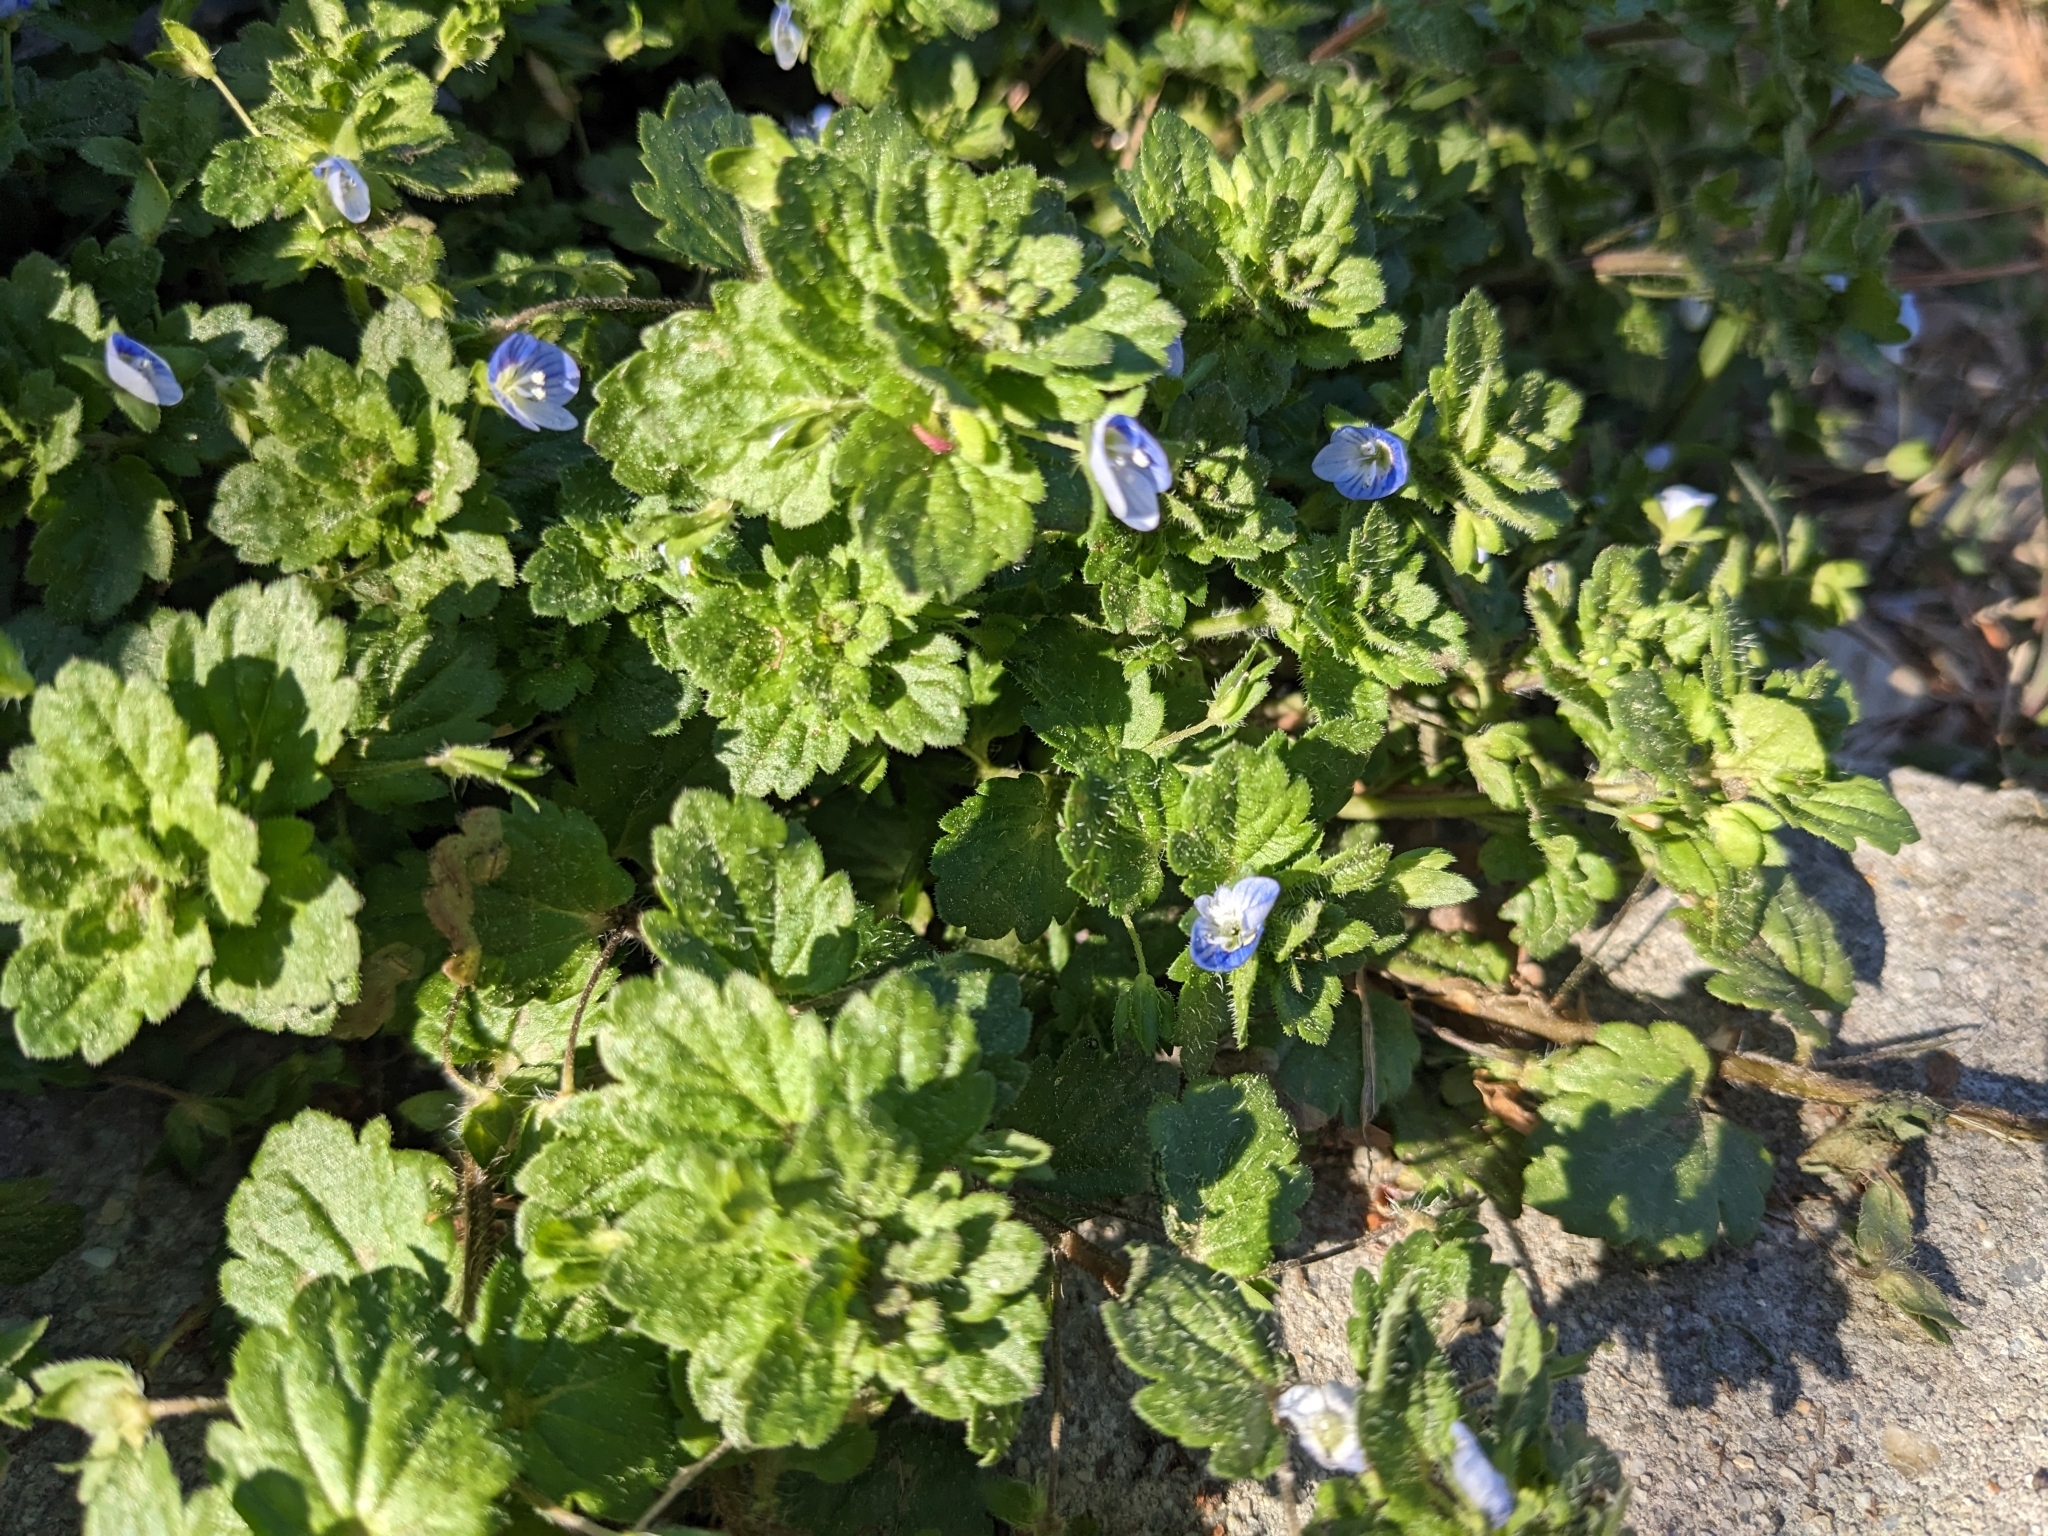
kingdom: Plantae
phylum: Tracheophyta
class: Magnoliopsida
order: Lamiales
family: Plantaginaceae
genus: Veronica
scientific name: Veronica persica
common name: Common field-speedwell
